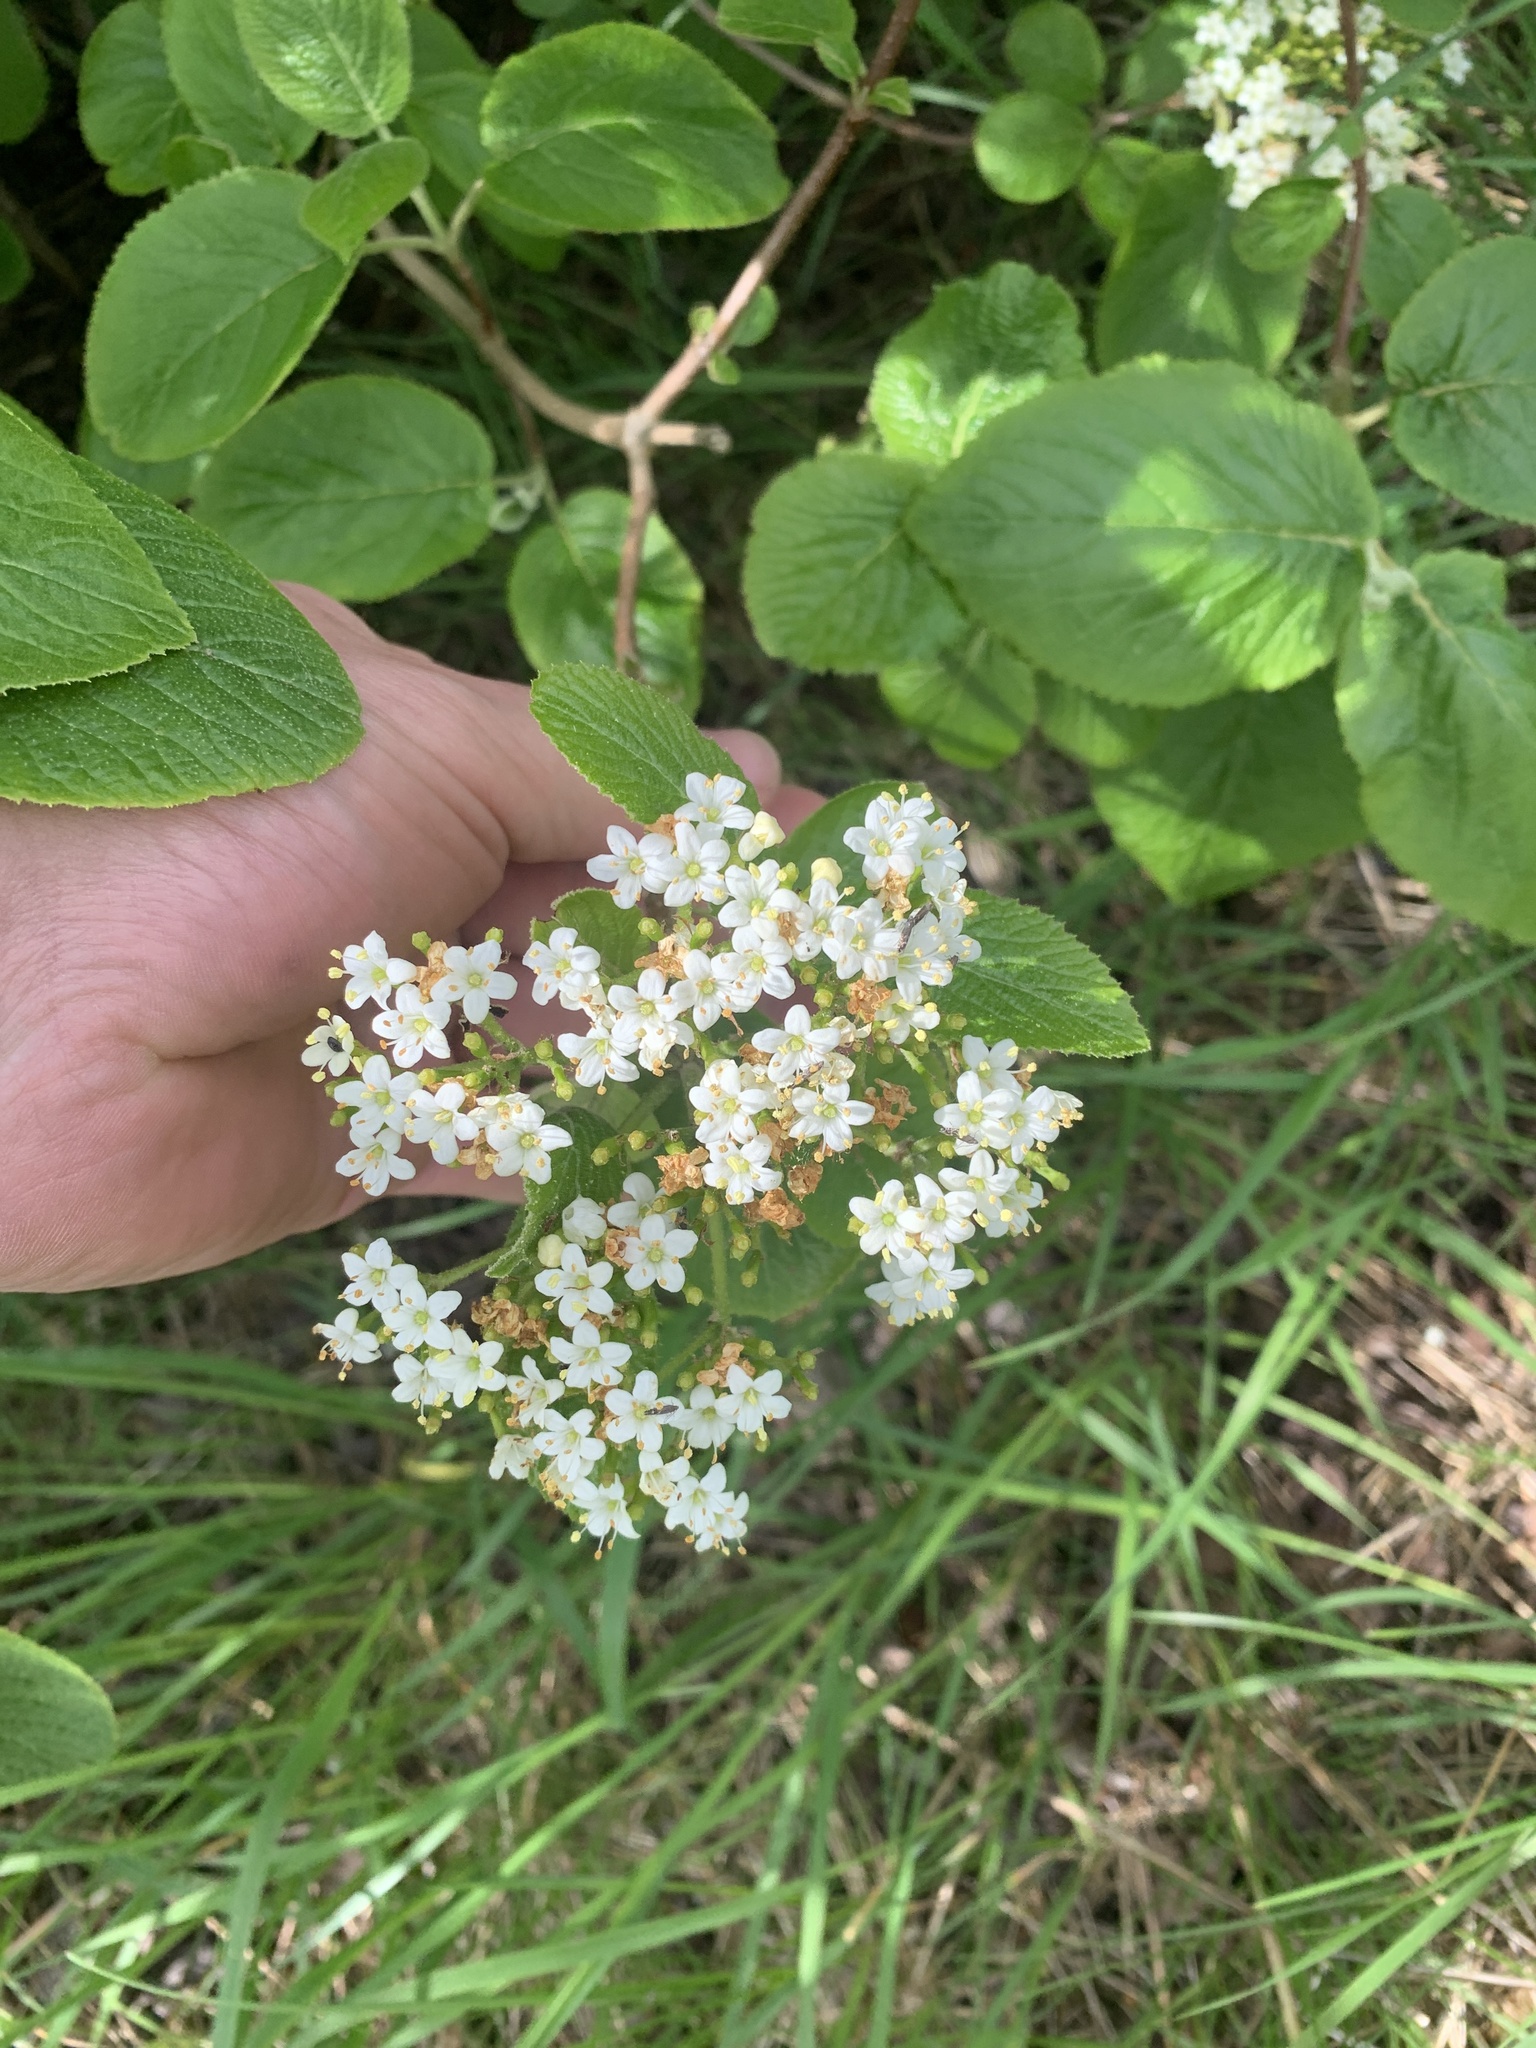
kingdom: Plantae
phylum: Tracheophyta
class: Magnoliopsida
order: Dipsacales
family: Viburnaceae
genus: Viburnum
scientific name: Viburnum lantana
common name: Wayfaring tree
